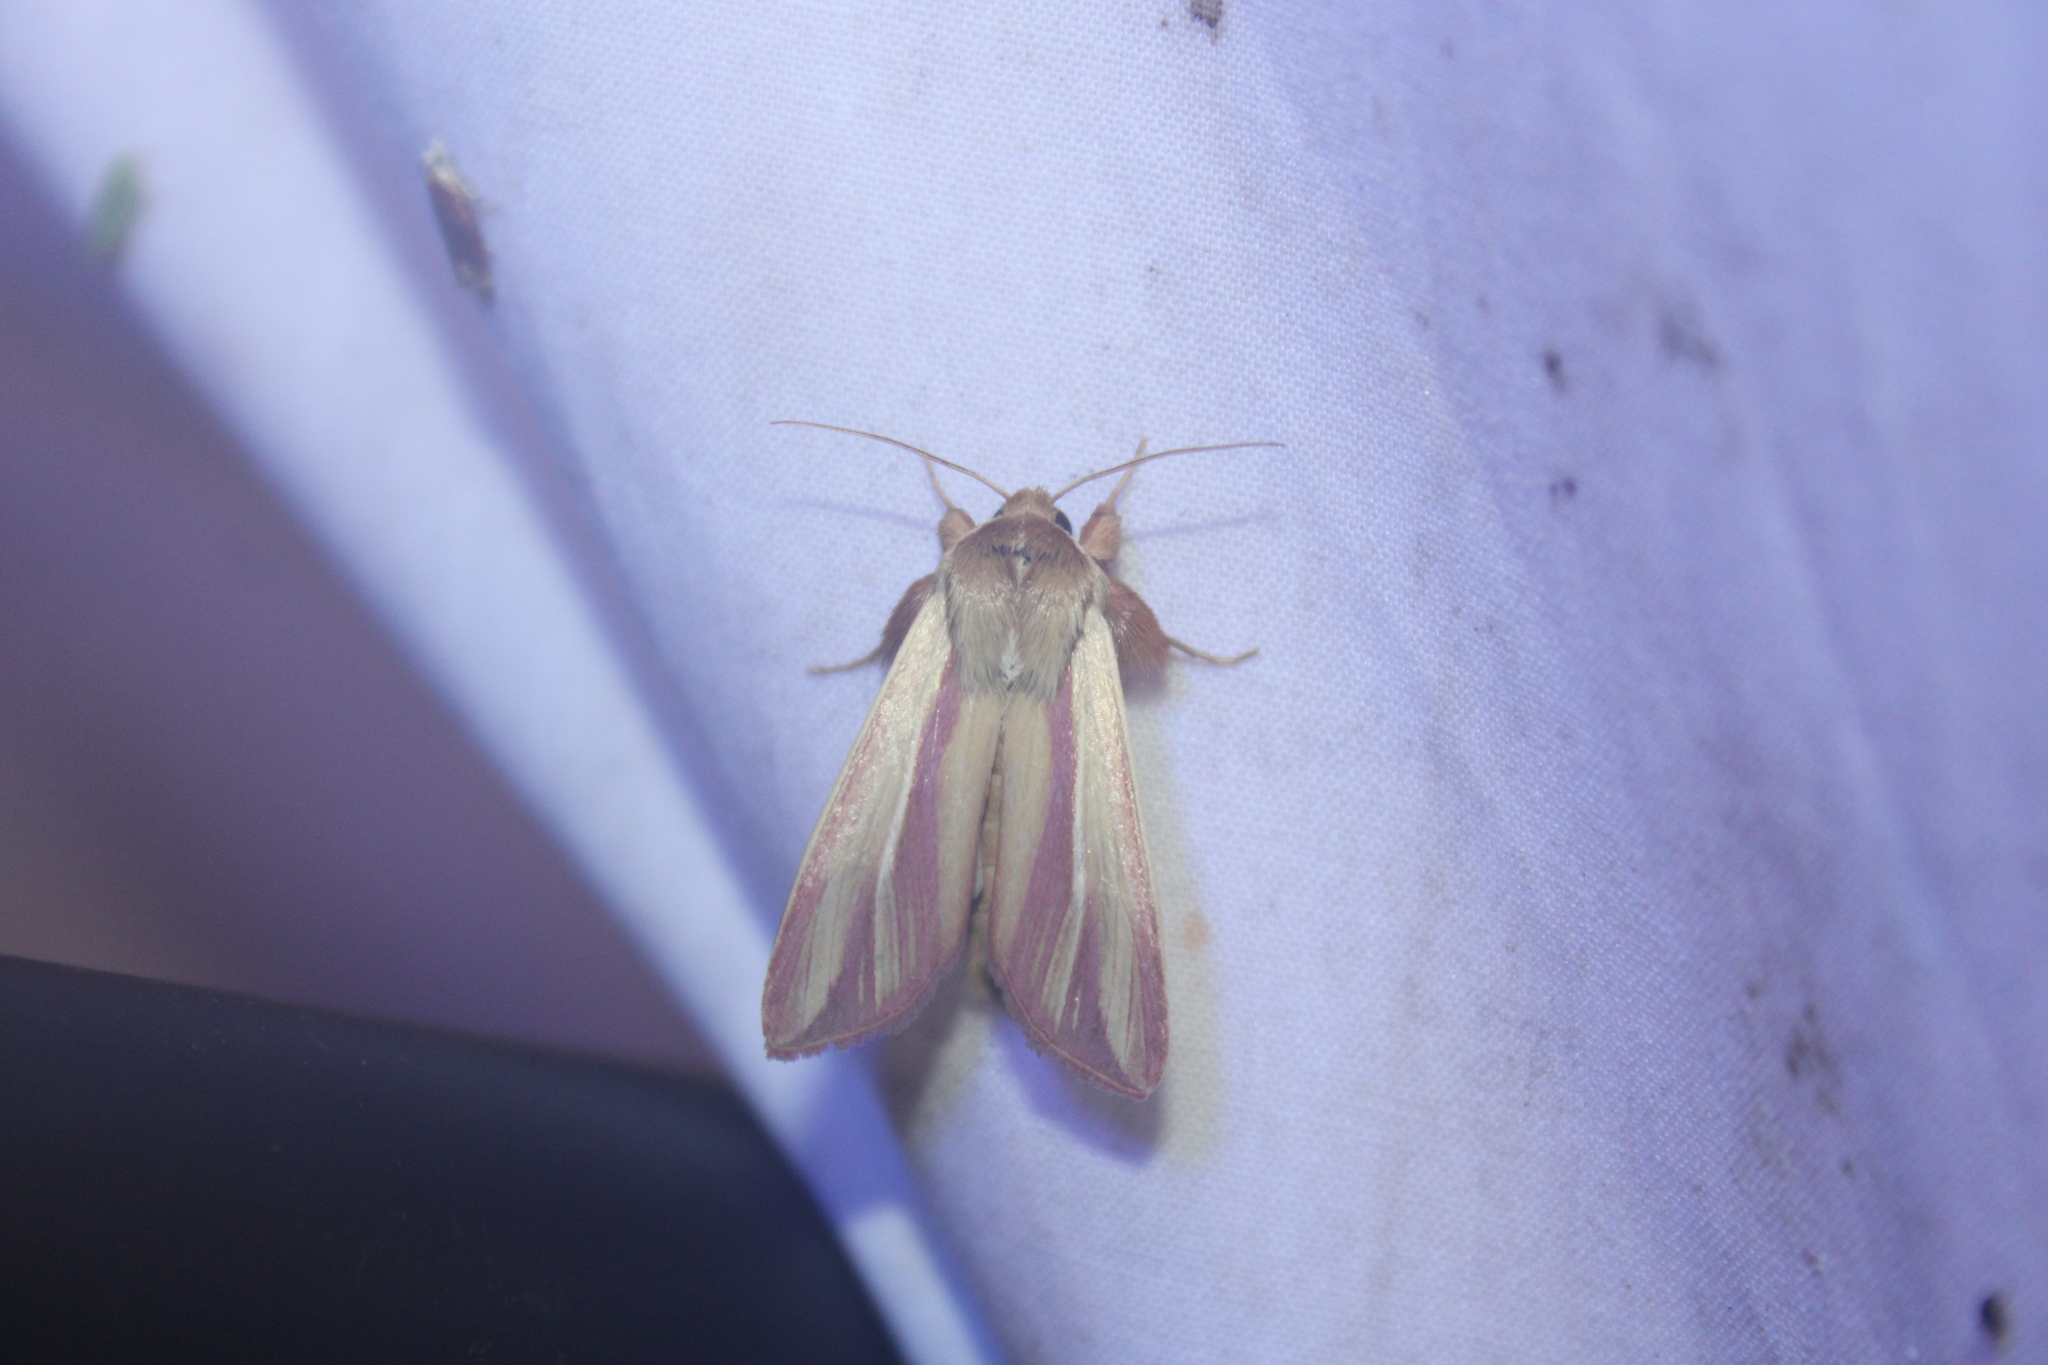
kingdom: Animalia
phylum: Arthropoda
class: Insecta
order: Lepidoptera
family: Noctuidae
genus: Dargida
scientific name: Dargida rubripennis
